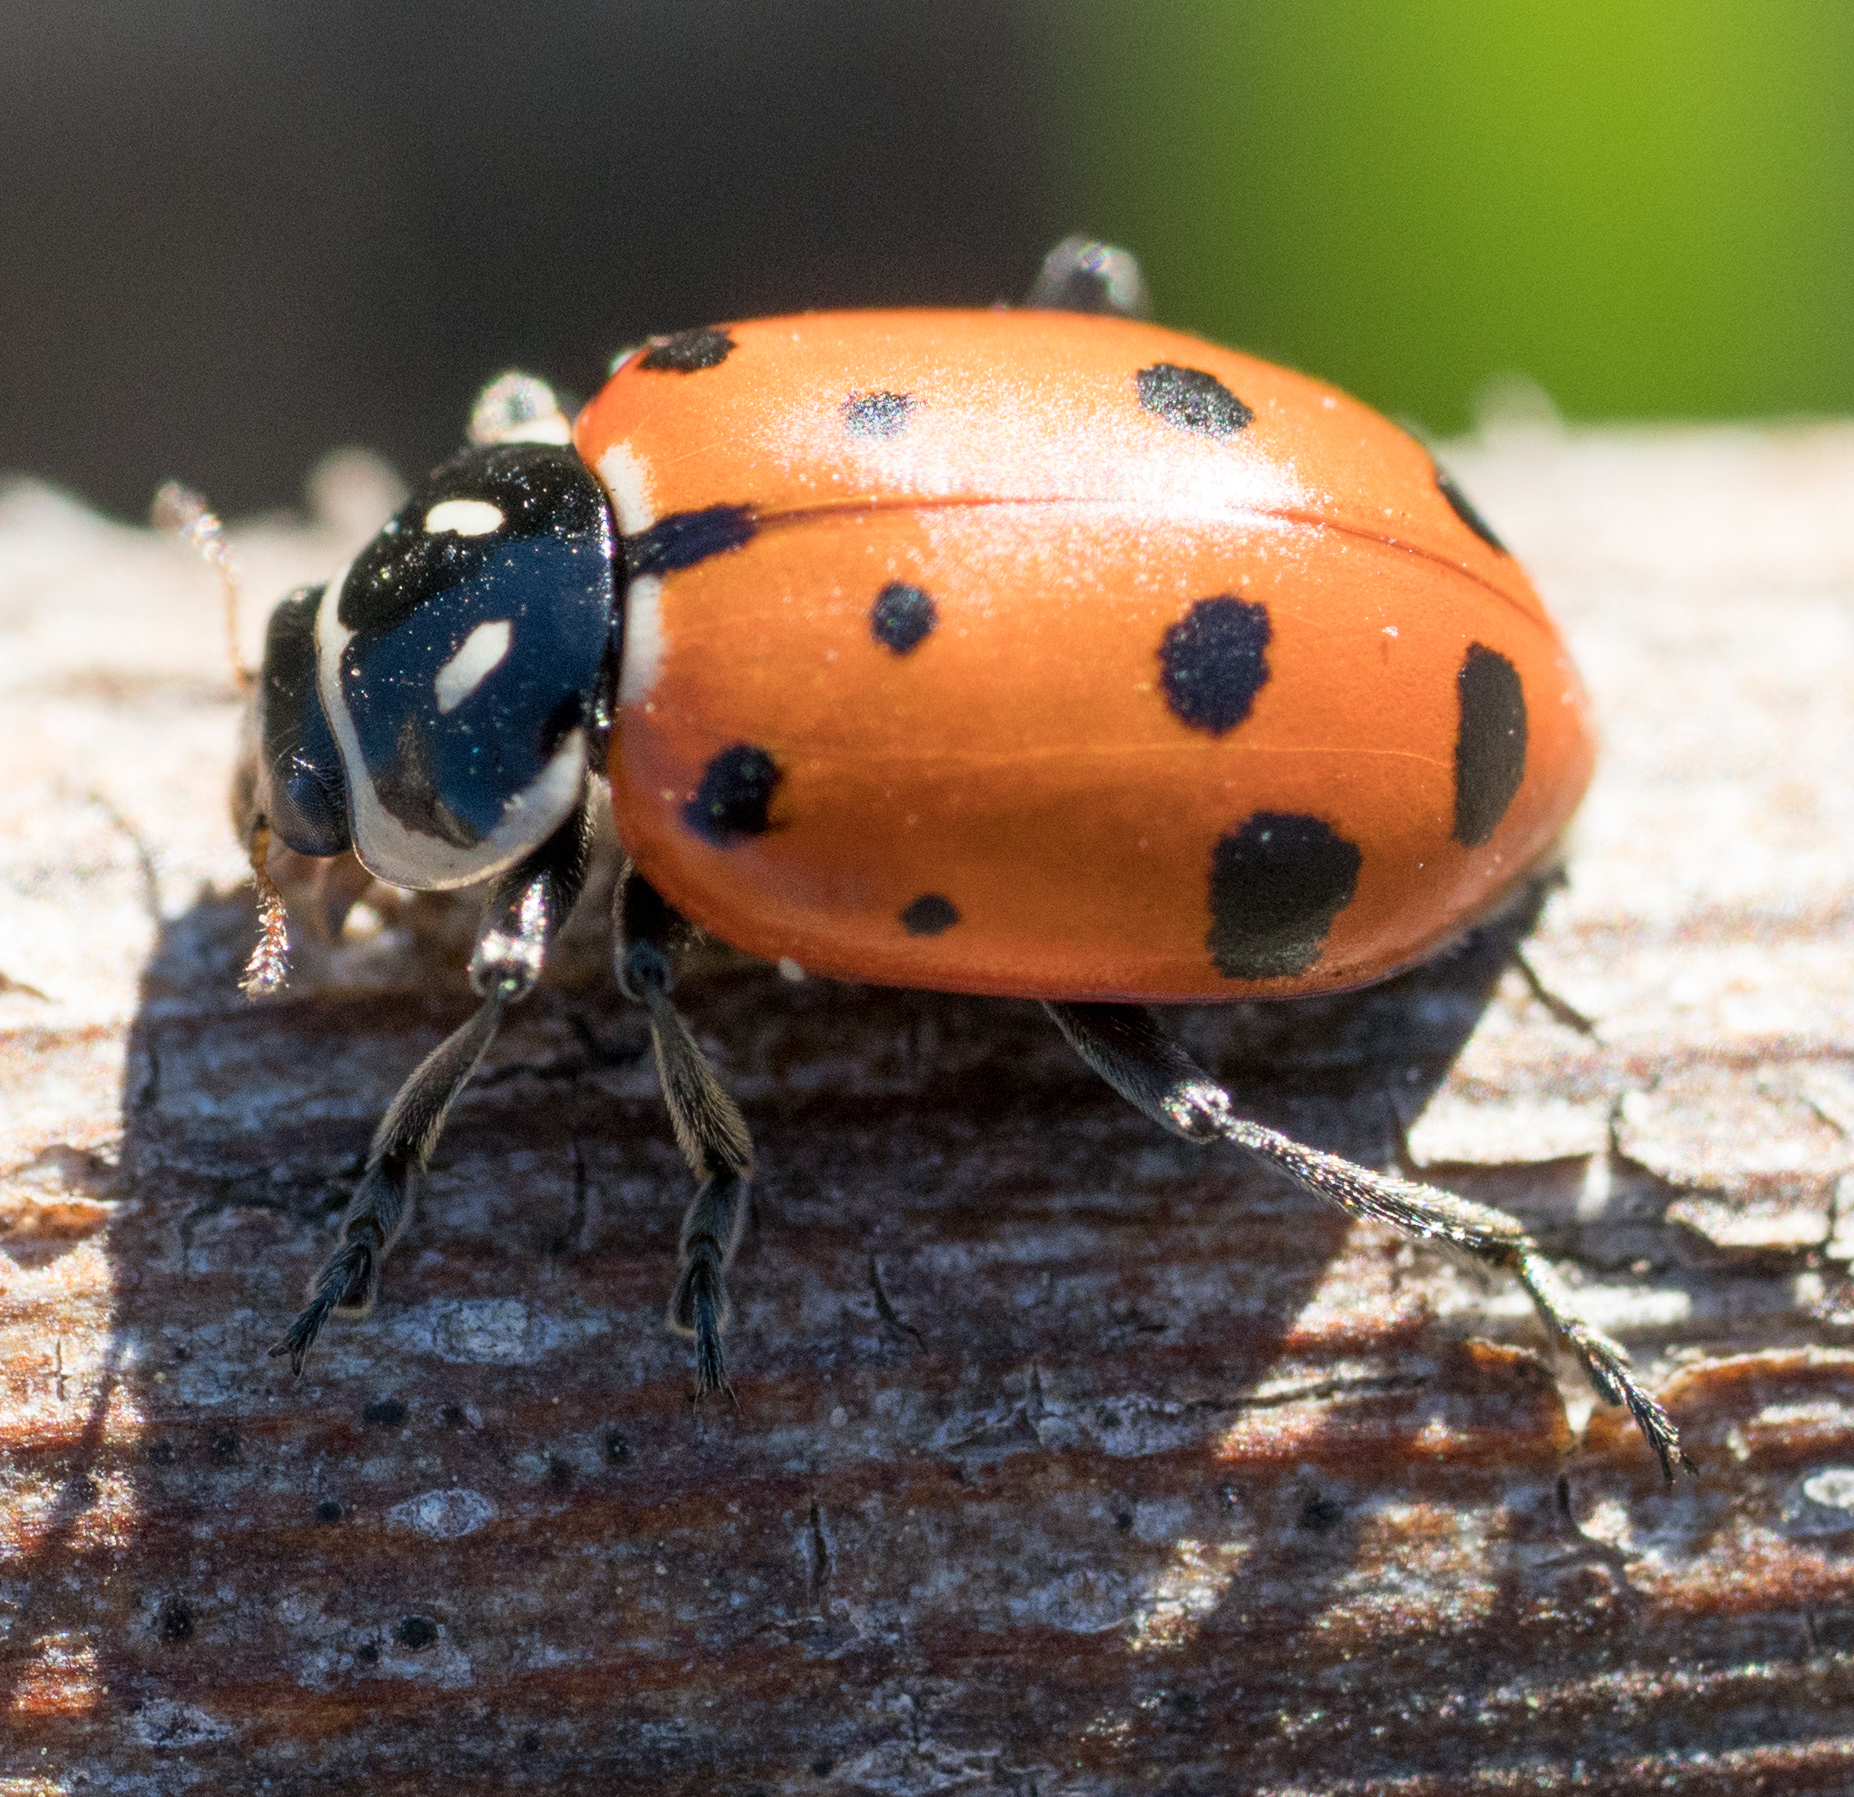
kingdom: Animalia
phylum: Arthropoda
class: Insecta
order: Coleoptera
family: Coccinellidae
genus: Hippodamia
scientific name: Hippodamia convergens
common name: Convergent lady beetle
